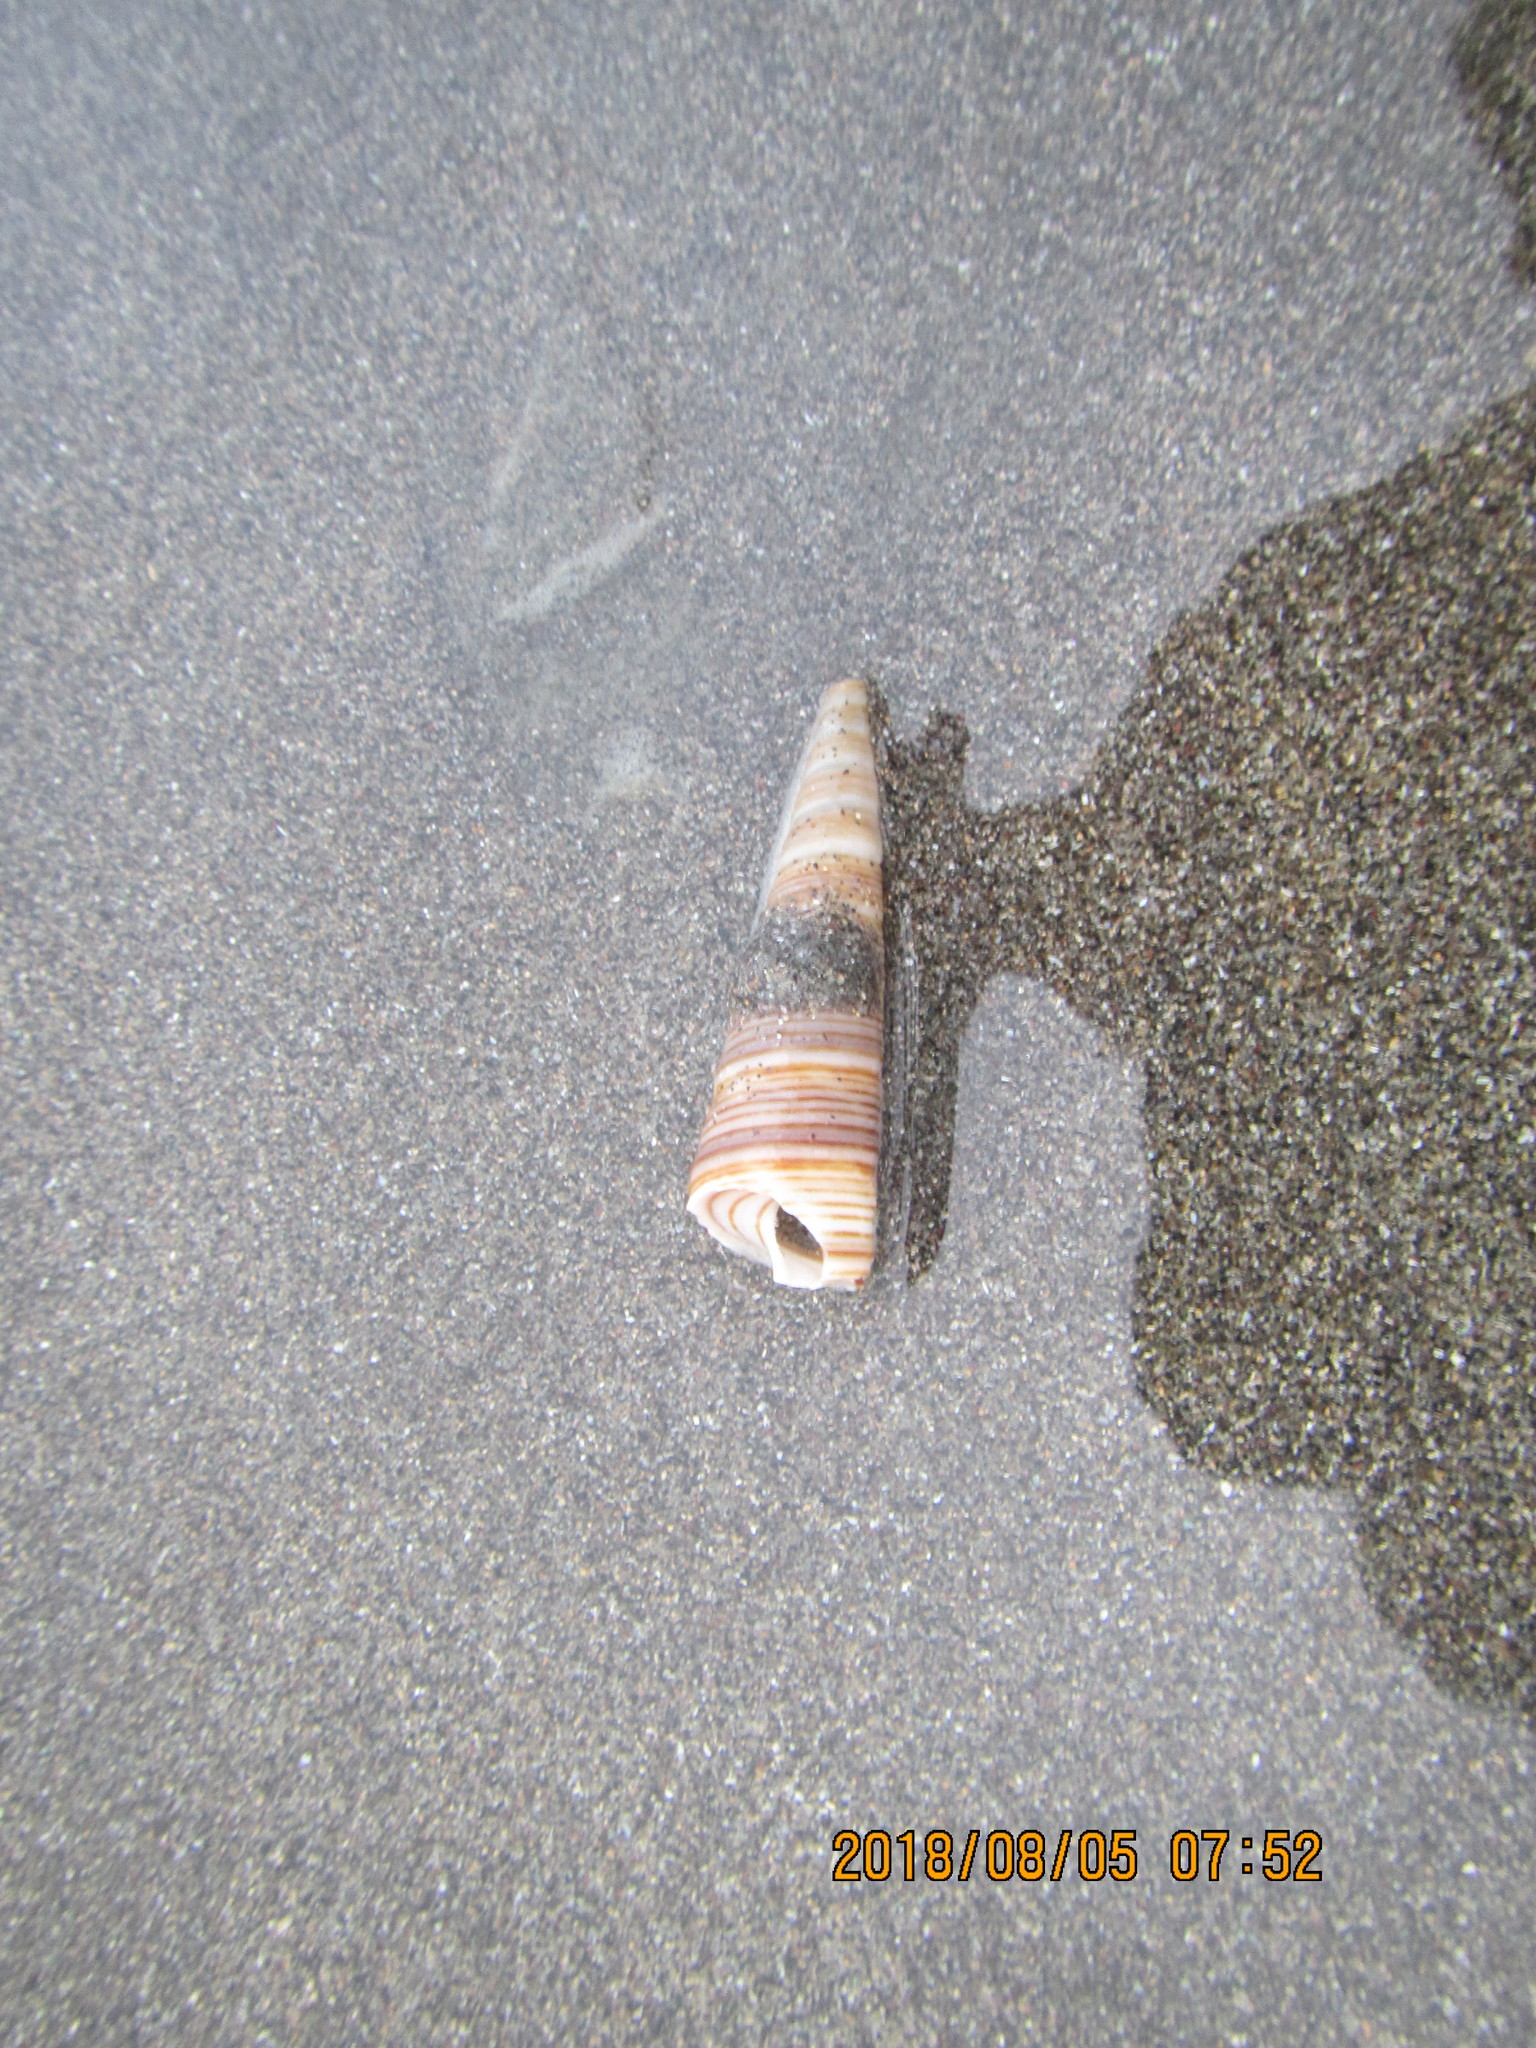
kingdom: Animalia
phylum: Mollusca
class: Gastropoda
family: Turritellidae
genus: Zeacolpus
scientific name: Zeacolpus vittatus
